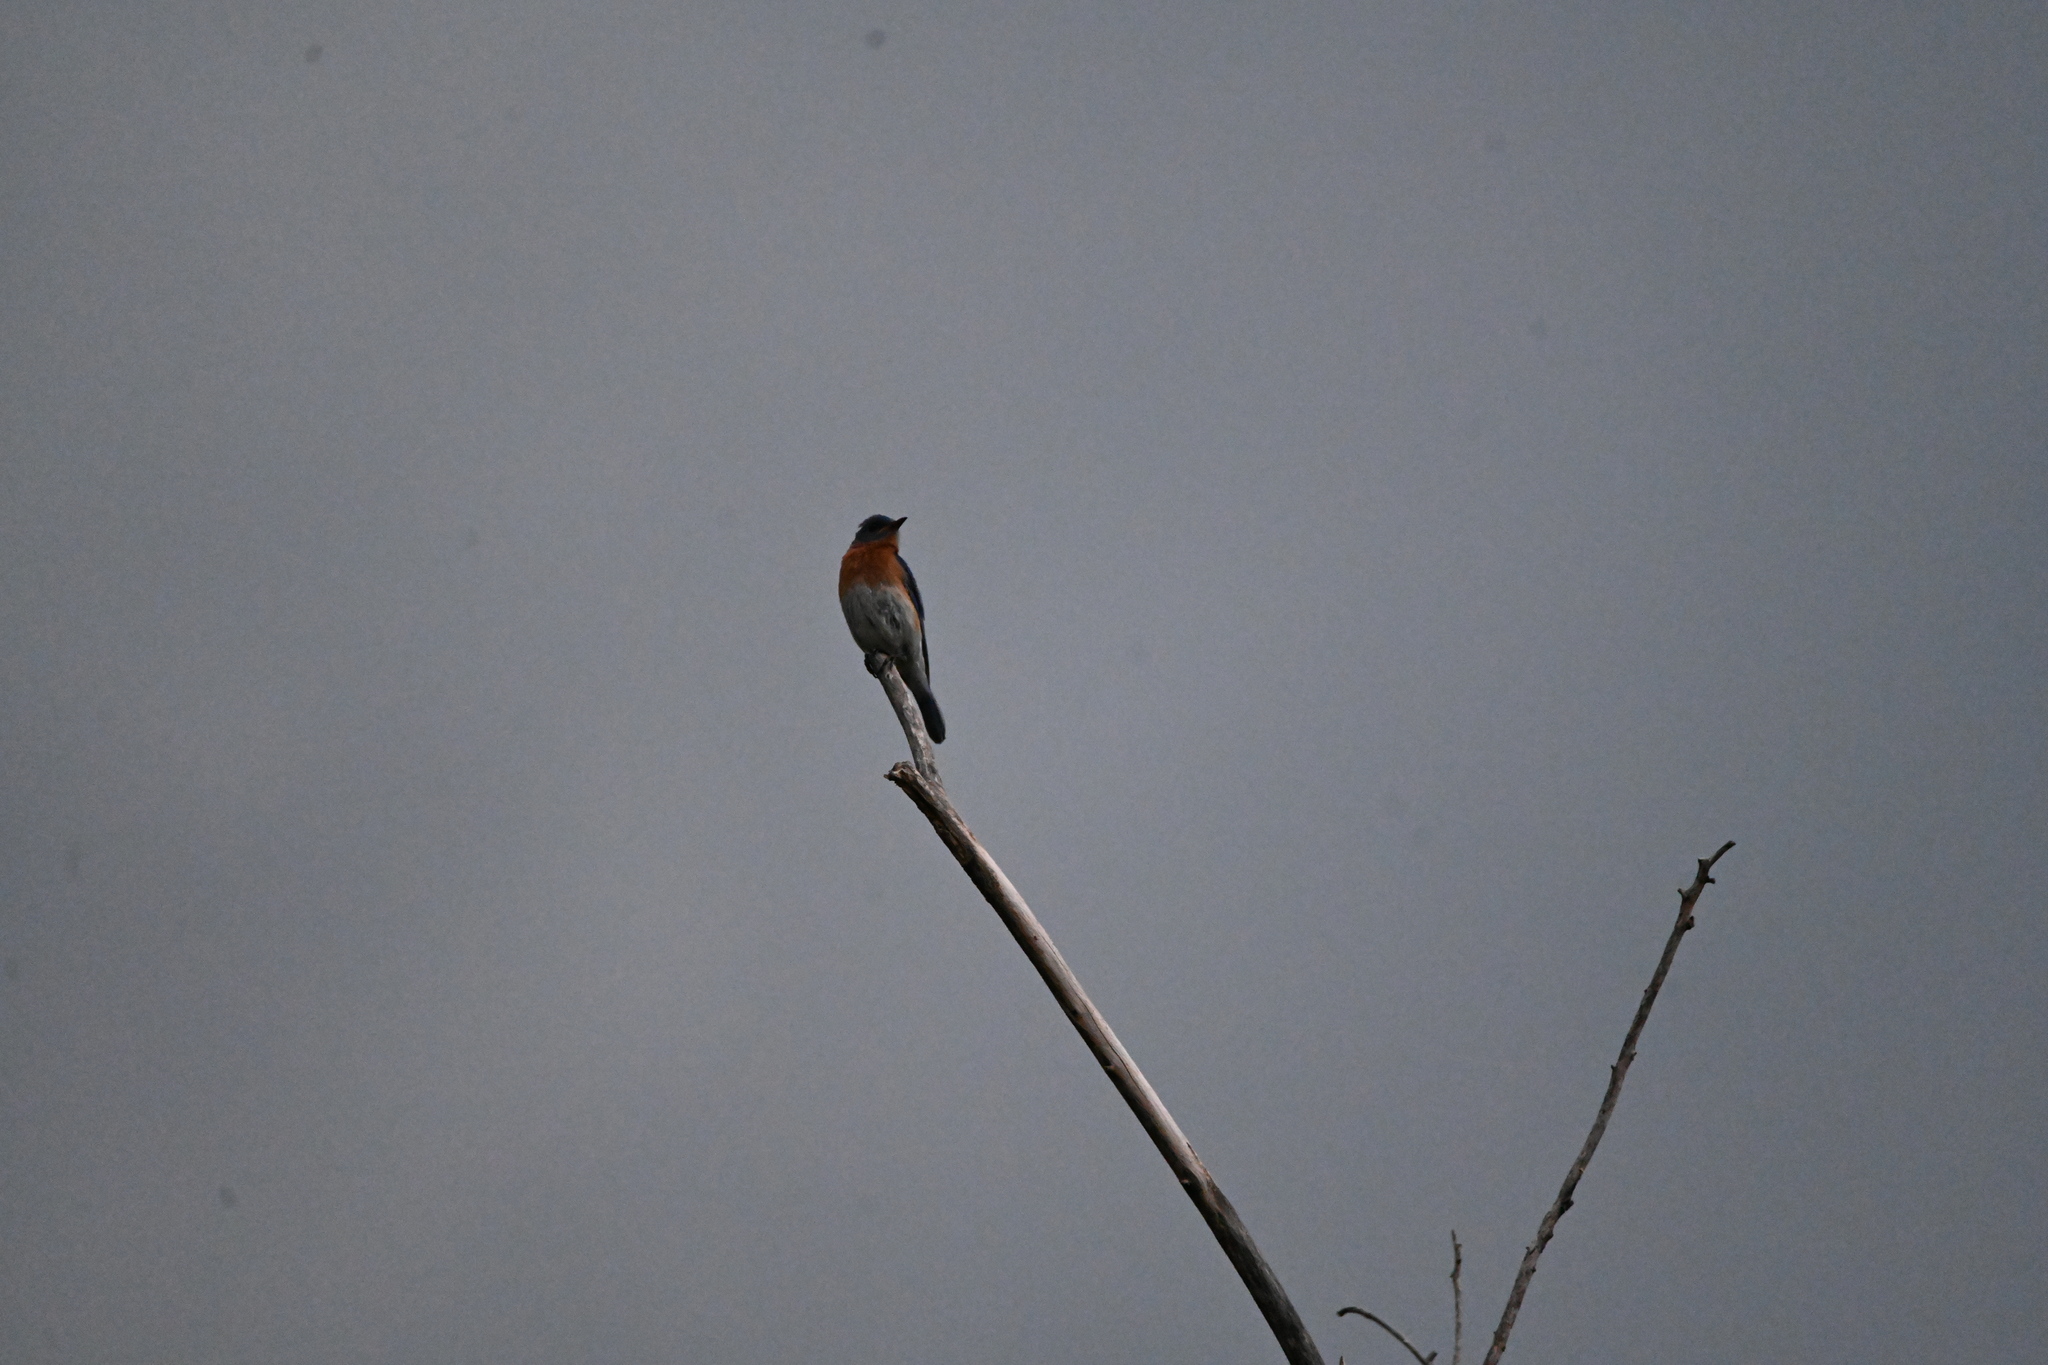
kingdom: Animalia
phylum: Chordata
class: Aves
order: Passeriformes
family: Turdidae
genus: Sialia
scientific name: Sialia sialis
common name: Eastern bluebird
